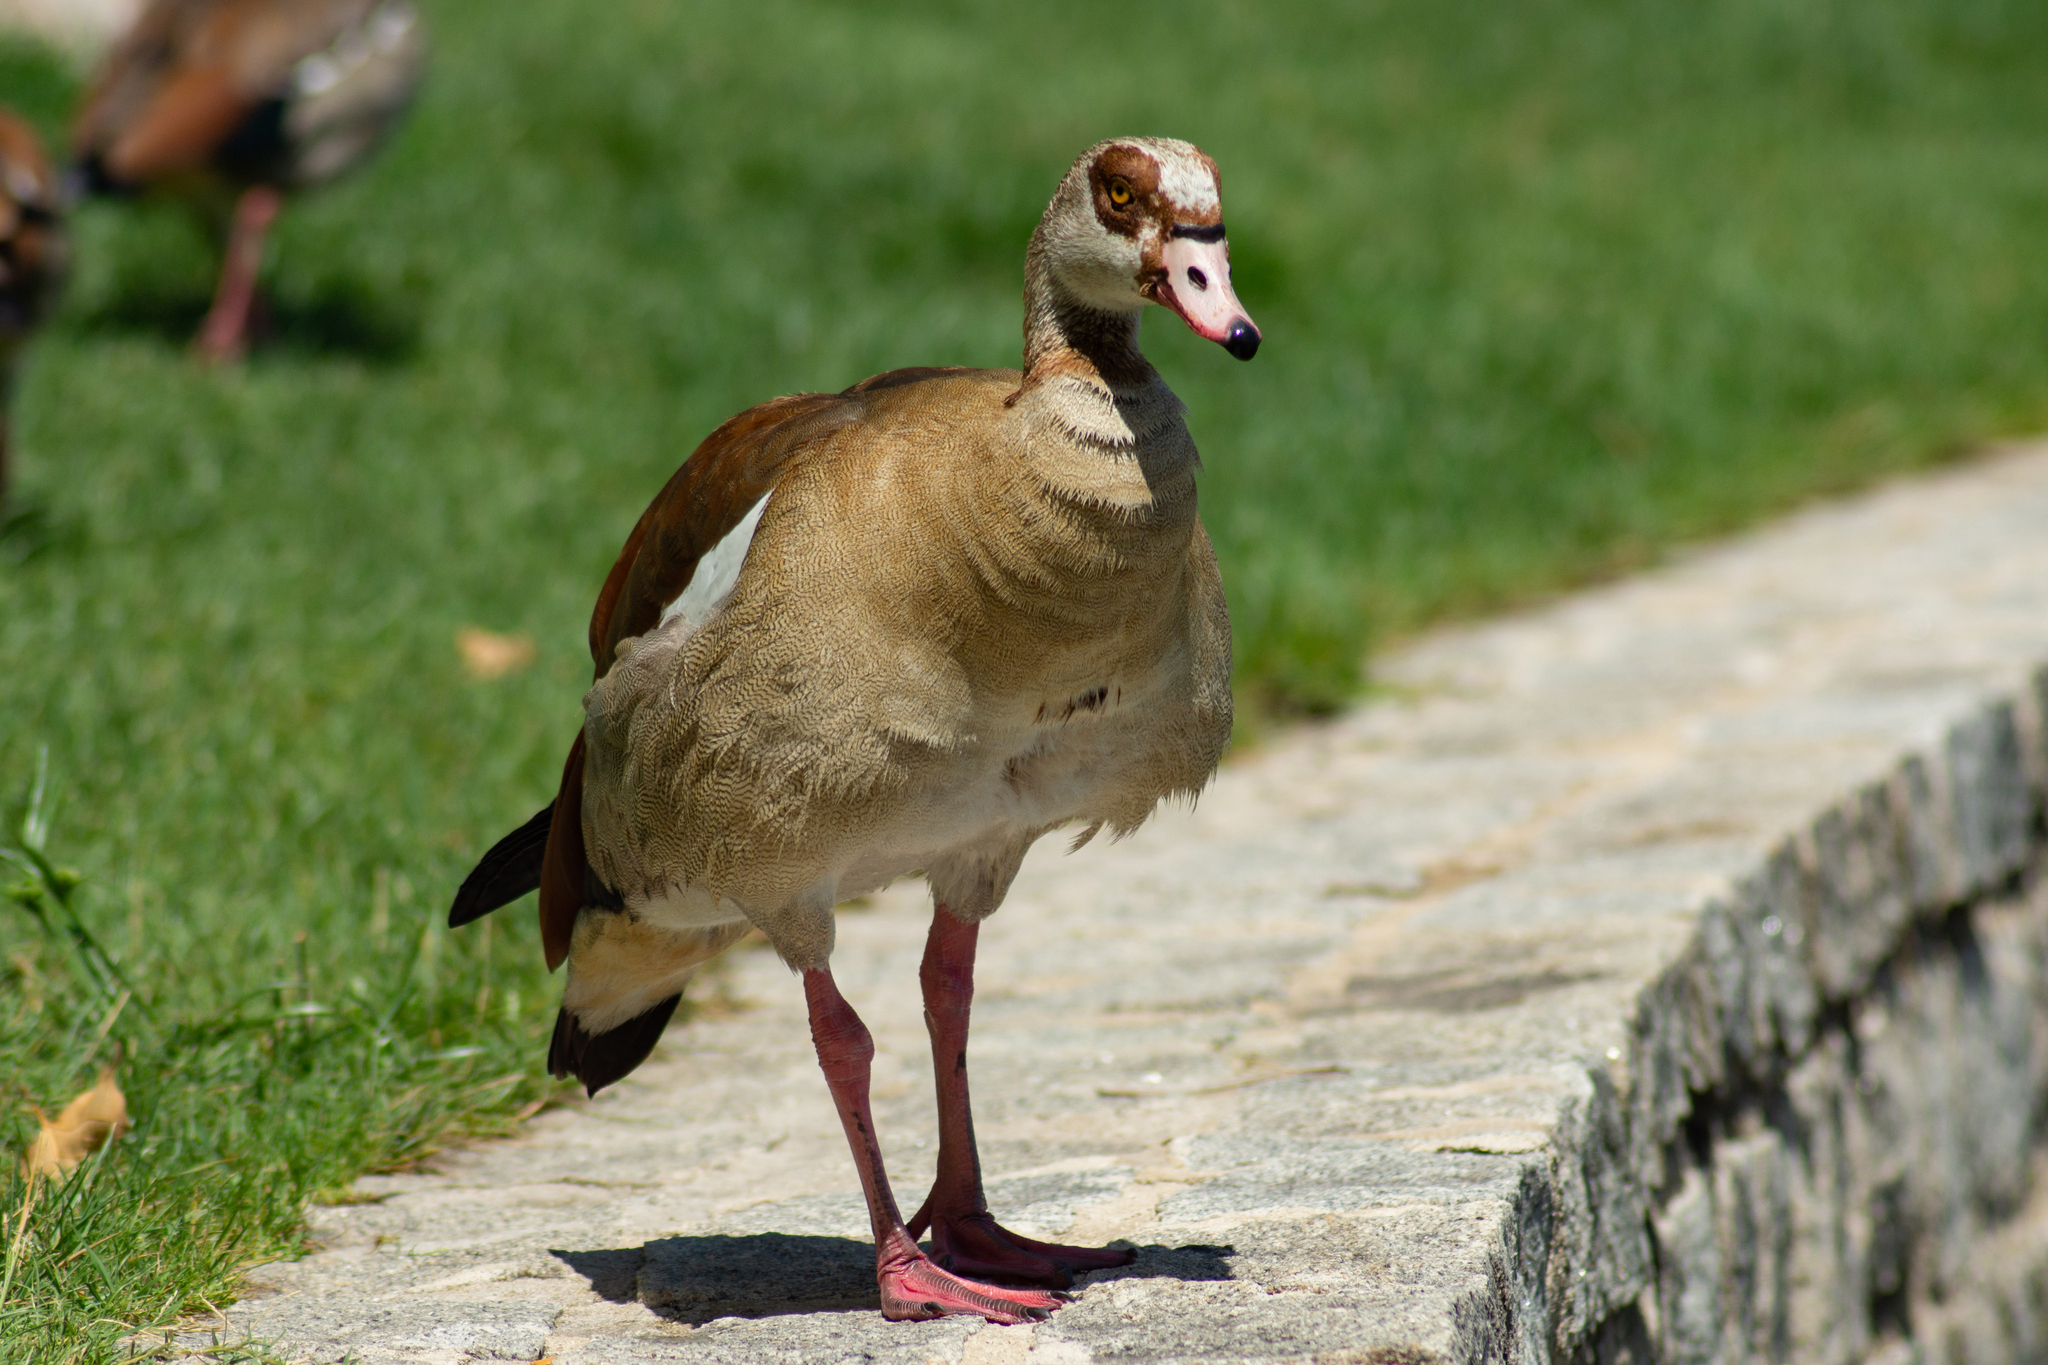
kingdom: Animalia
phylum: Chordata
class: Aves
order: Anseriformes
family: Anatidae
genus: Alopochen
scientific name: Alopochen aegyptiaca
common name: Egyptian goose
